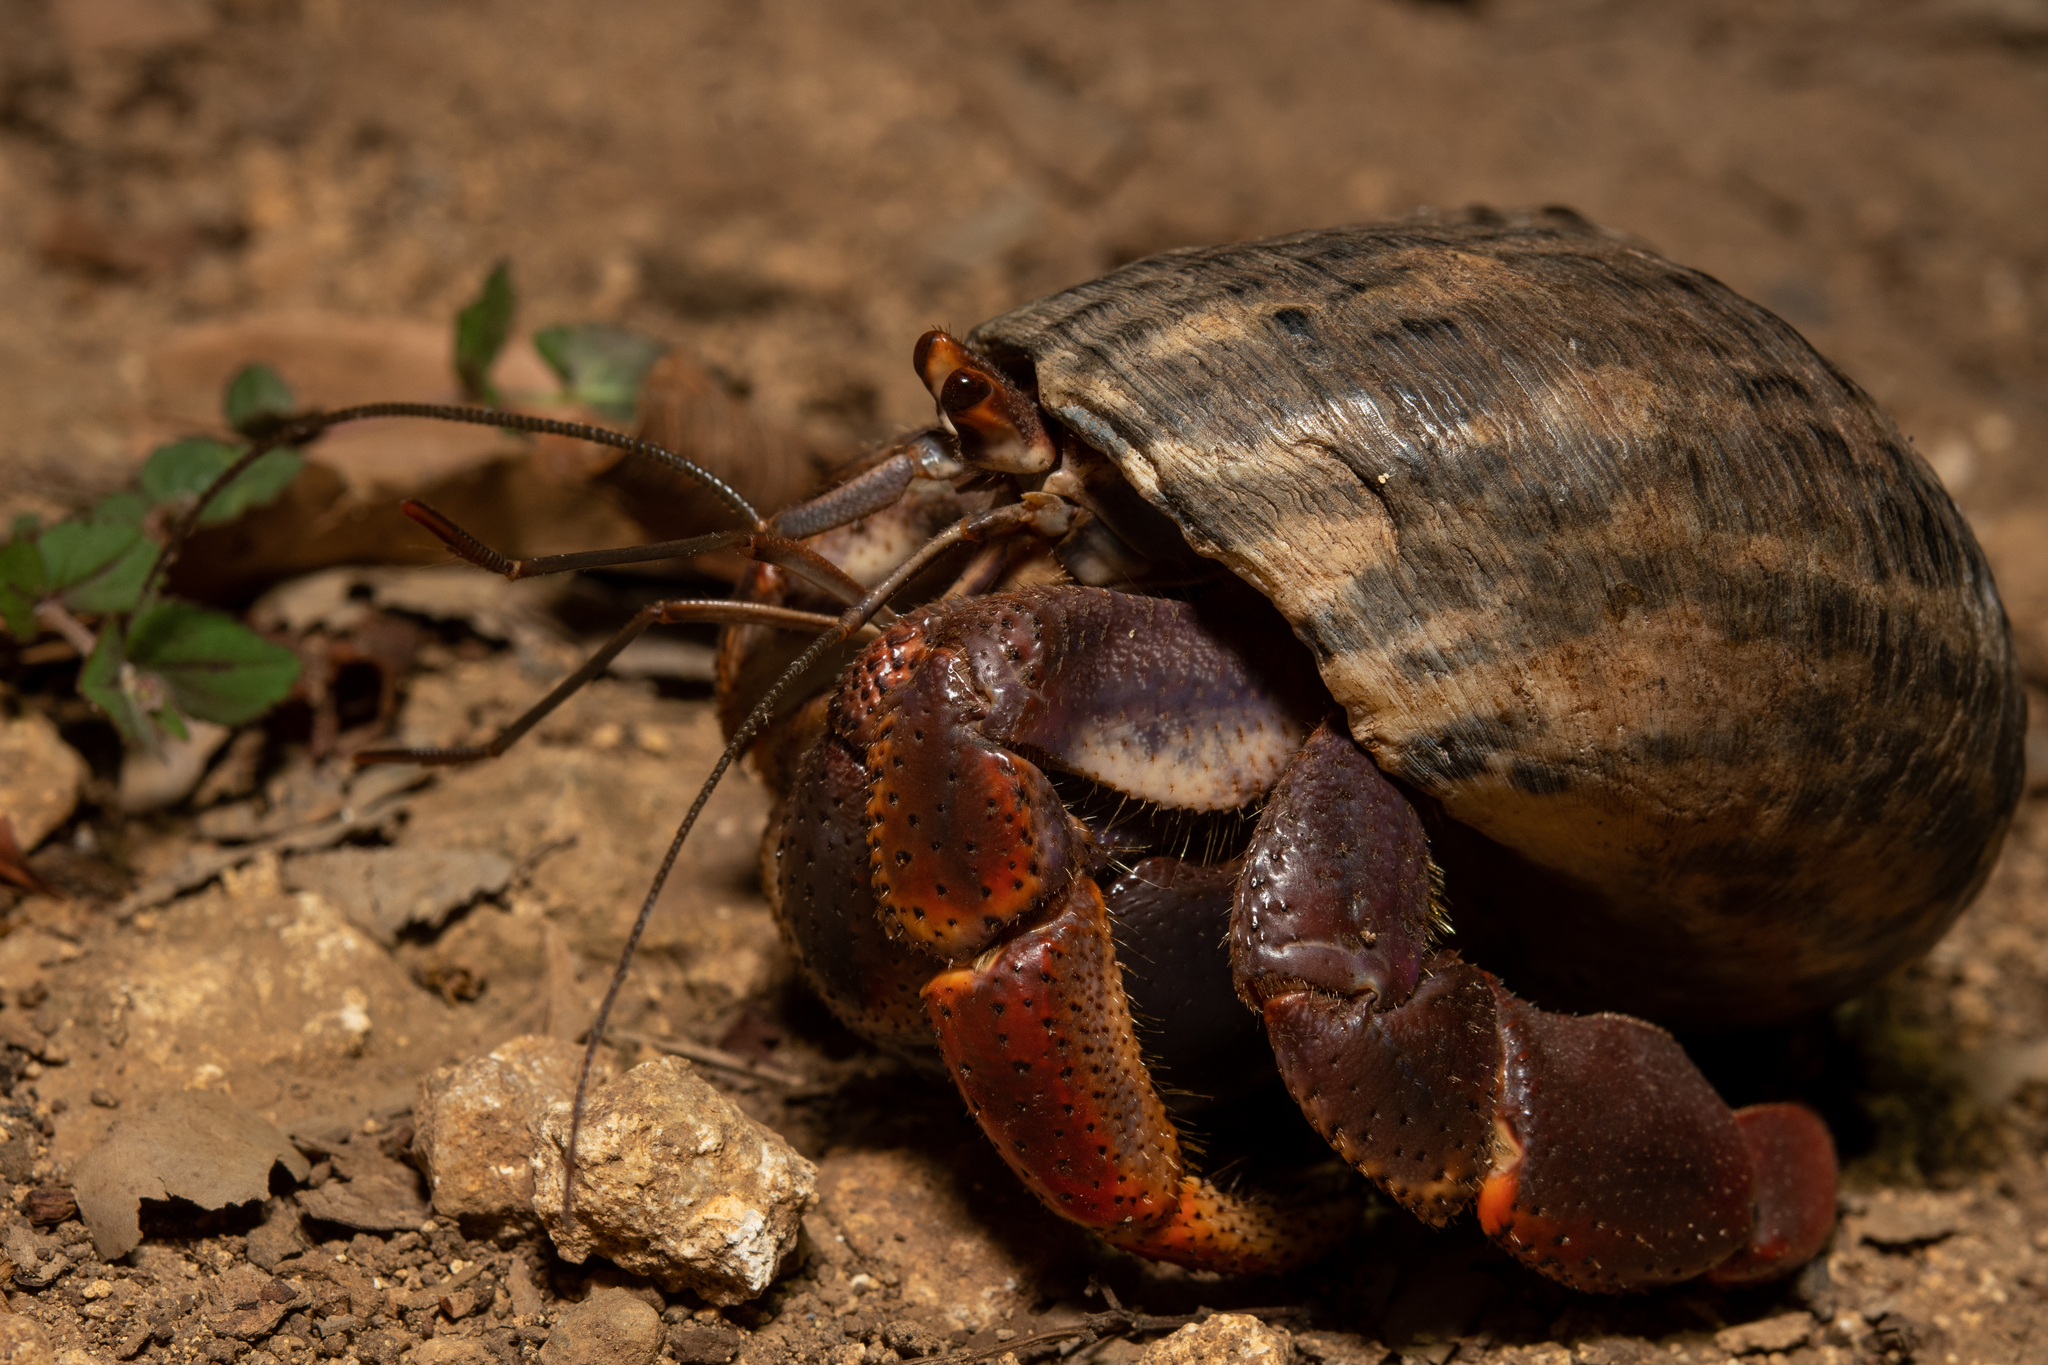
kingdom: Animalia
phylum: Arthropoda
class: Malacostraca
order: Decapoda
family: Coenobitidae
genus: Coenobita
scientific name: Coenobita clypeatus
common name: Caribbean hermit crab
